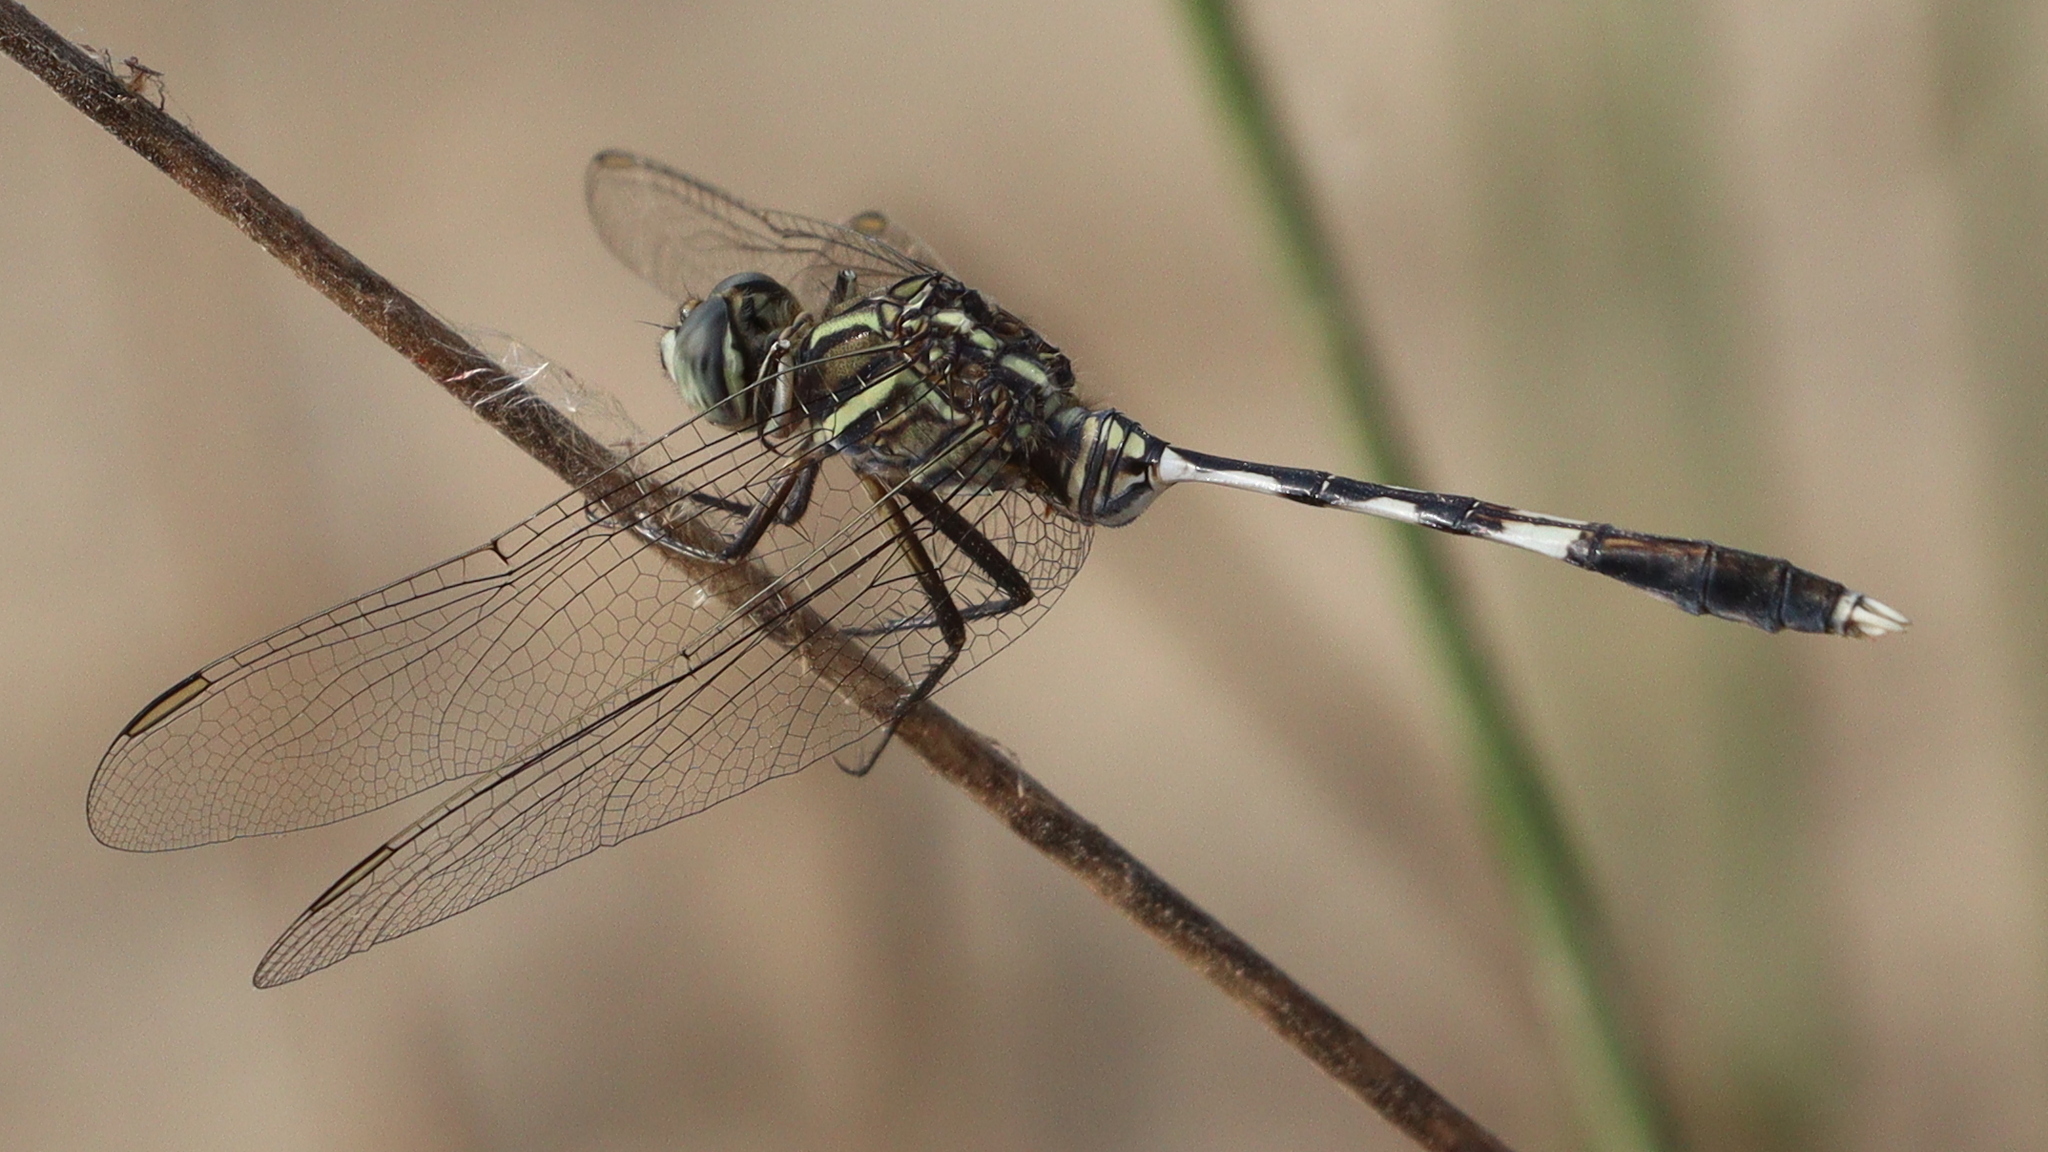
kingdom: Animalia
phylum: Arthropoda
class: Insecta
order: Odonata
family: Libellulidae
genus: Orthetrum
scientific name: Orthetrum sabina
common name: Slender skimmer
